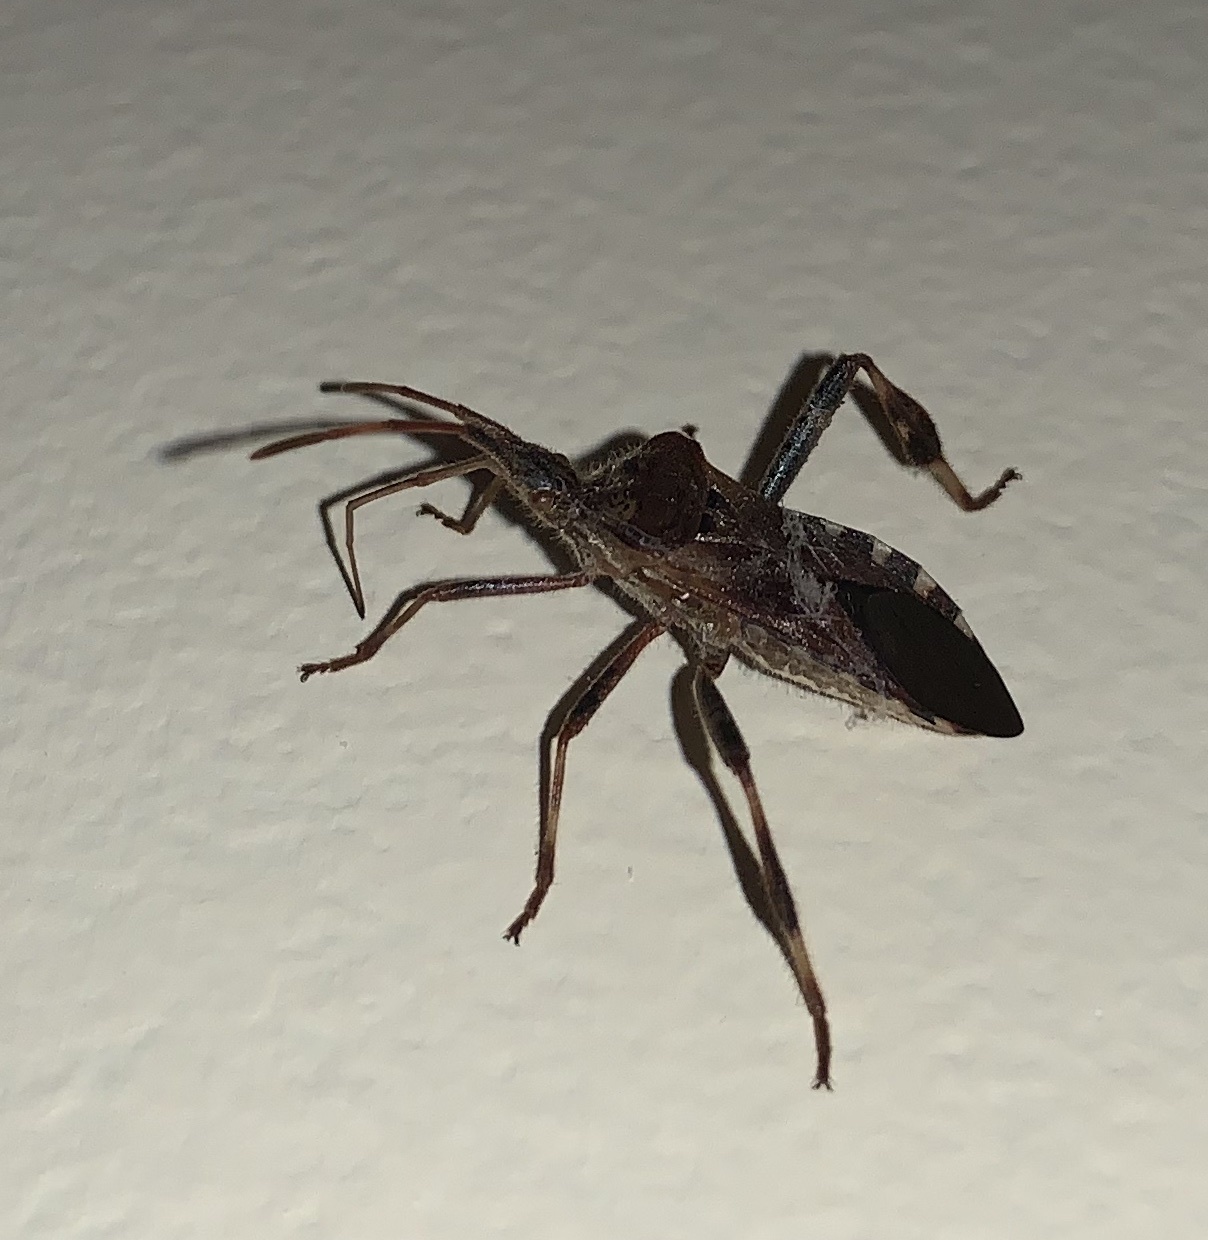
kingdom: Animalia
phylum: Arthropoda
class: Insecta
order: Hemiptera
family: Coreidae
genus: Leptoglossus
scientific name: Leptoglossus occidentalis
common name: Western conifer-seed bug
